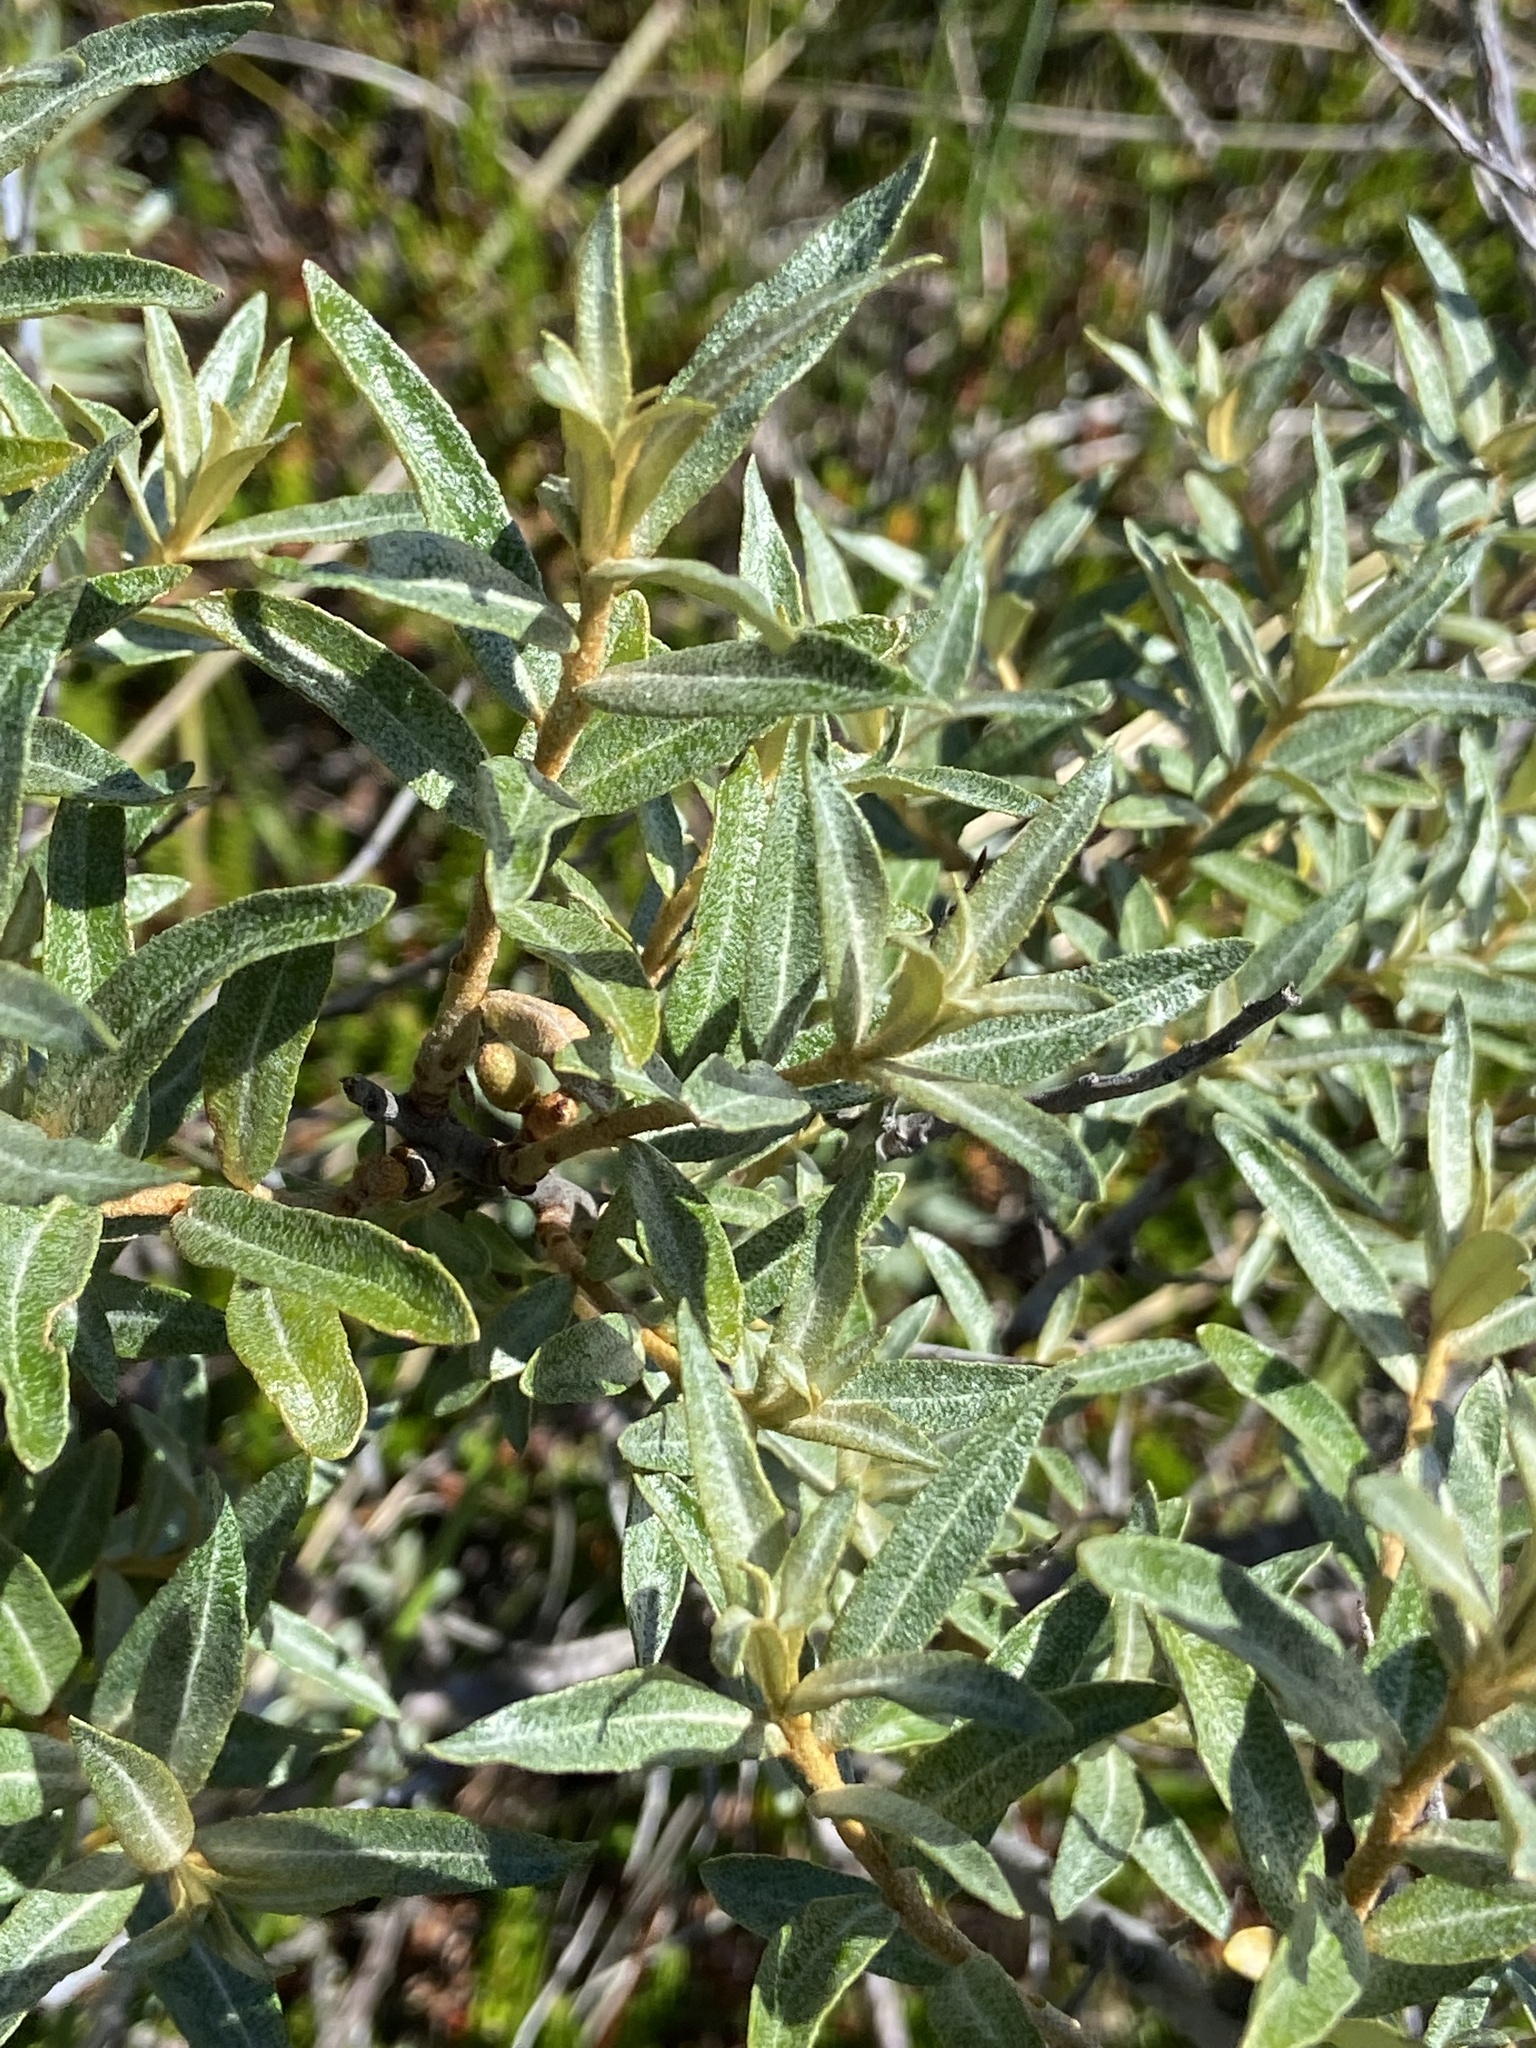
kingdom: Plantae
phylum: Tracheophyta
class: Magnoliopsida
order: Rosales
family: Elaeagnaceae
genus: Hippophae
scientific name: Hippophae rhamnoides
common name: Sea-buckthorn
